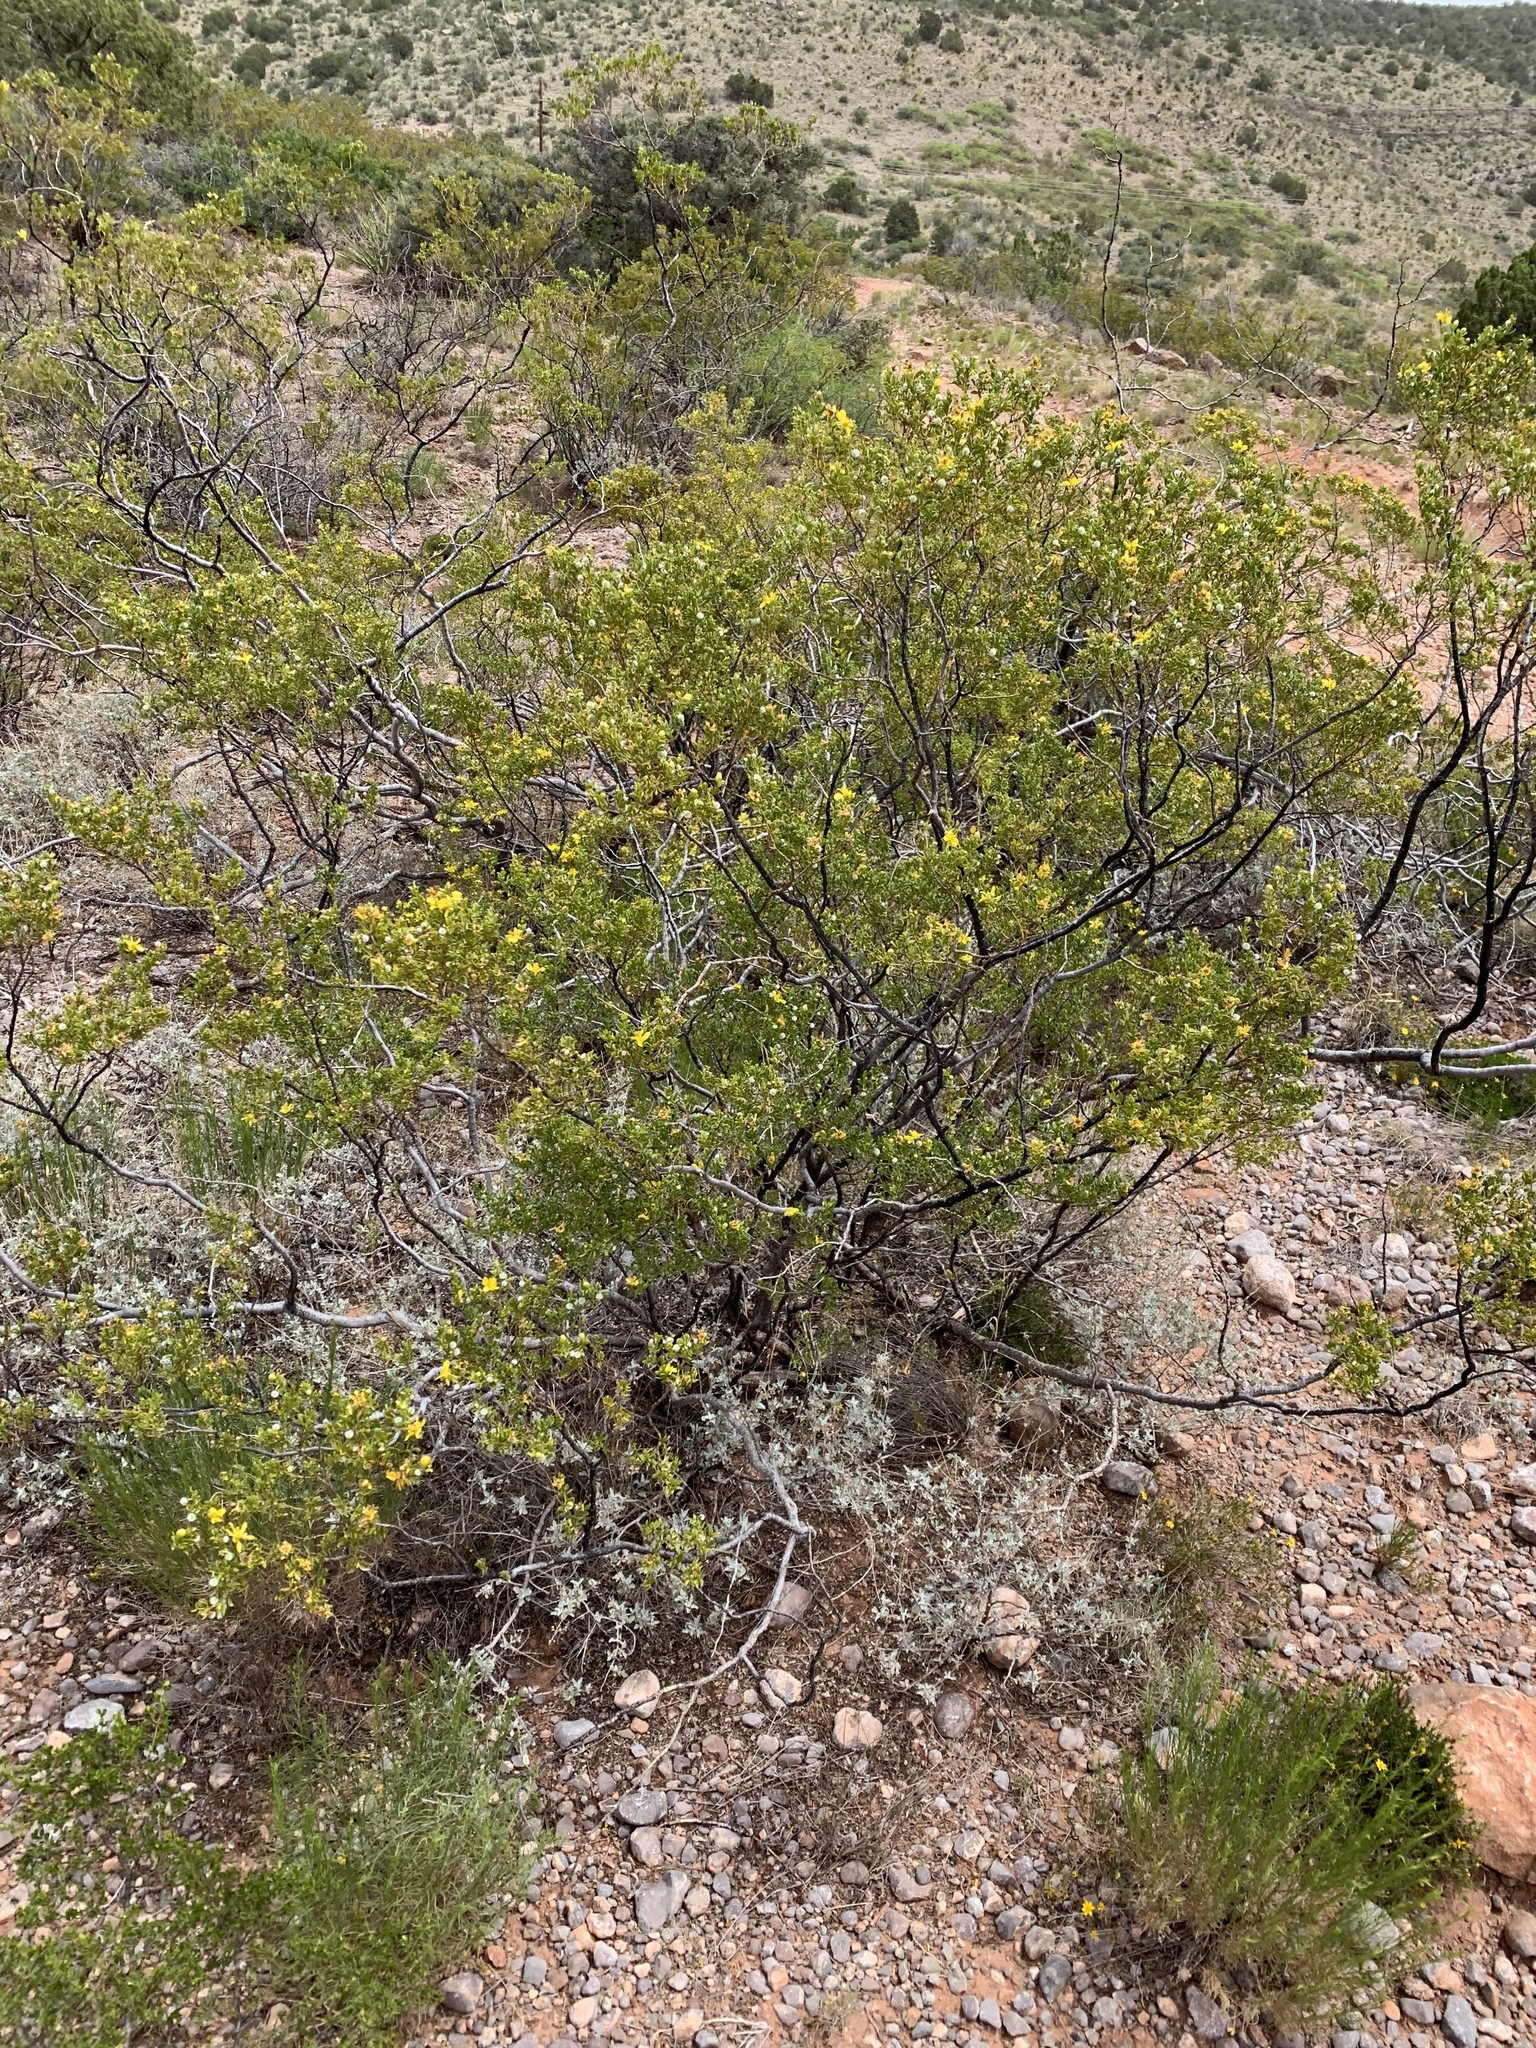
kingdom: Plantae
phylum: Tracheophyta
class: Magnoliopsida
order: Zygophyllales
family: Zygophyllaceae
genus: Larrea
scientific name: Larrea tridentata
